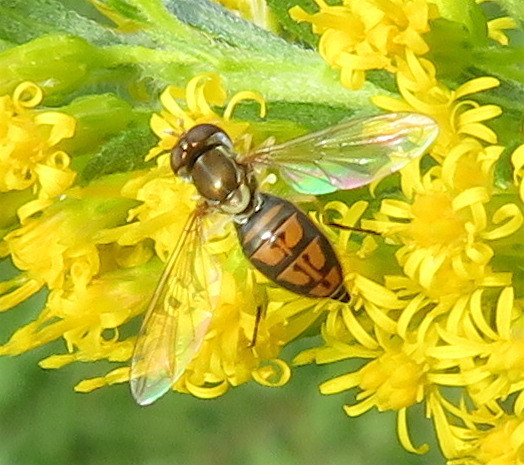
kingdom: Animalia
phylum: Arthropoda
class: Insecta
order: Diptera
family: Syrphidae
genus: Toxomerus
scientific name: Toxomerus marginatus
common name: Syrphid fly
